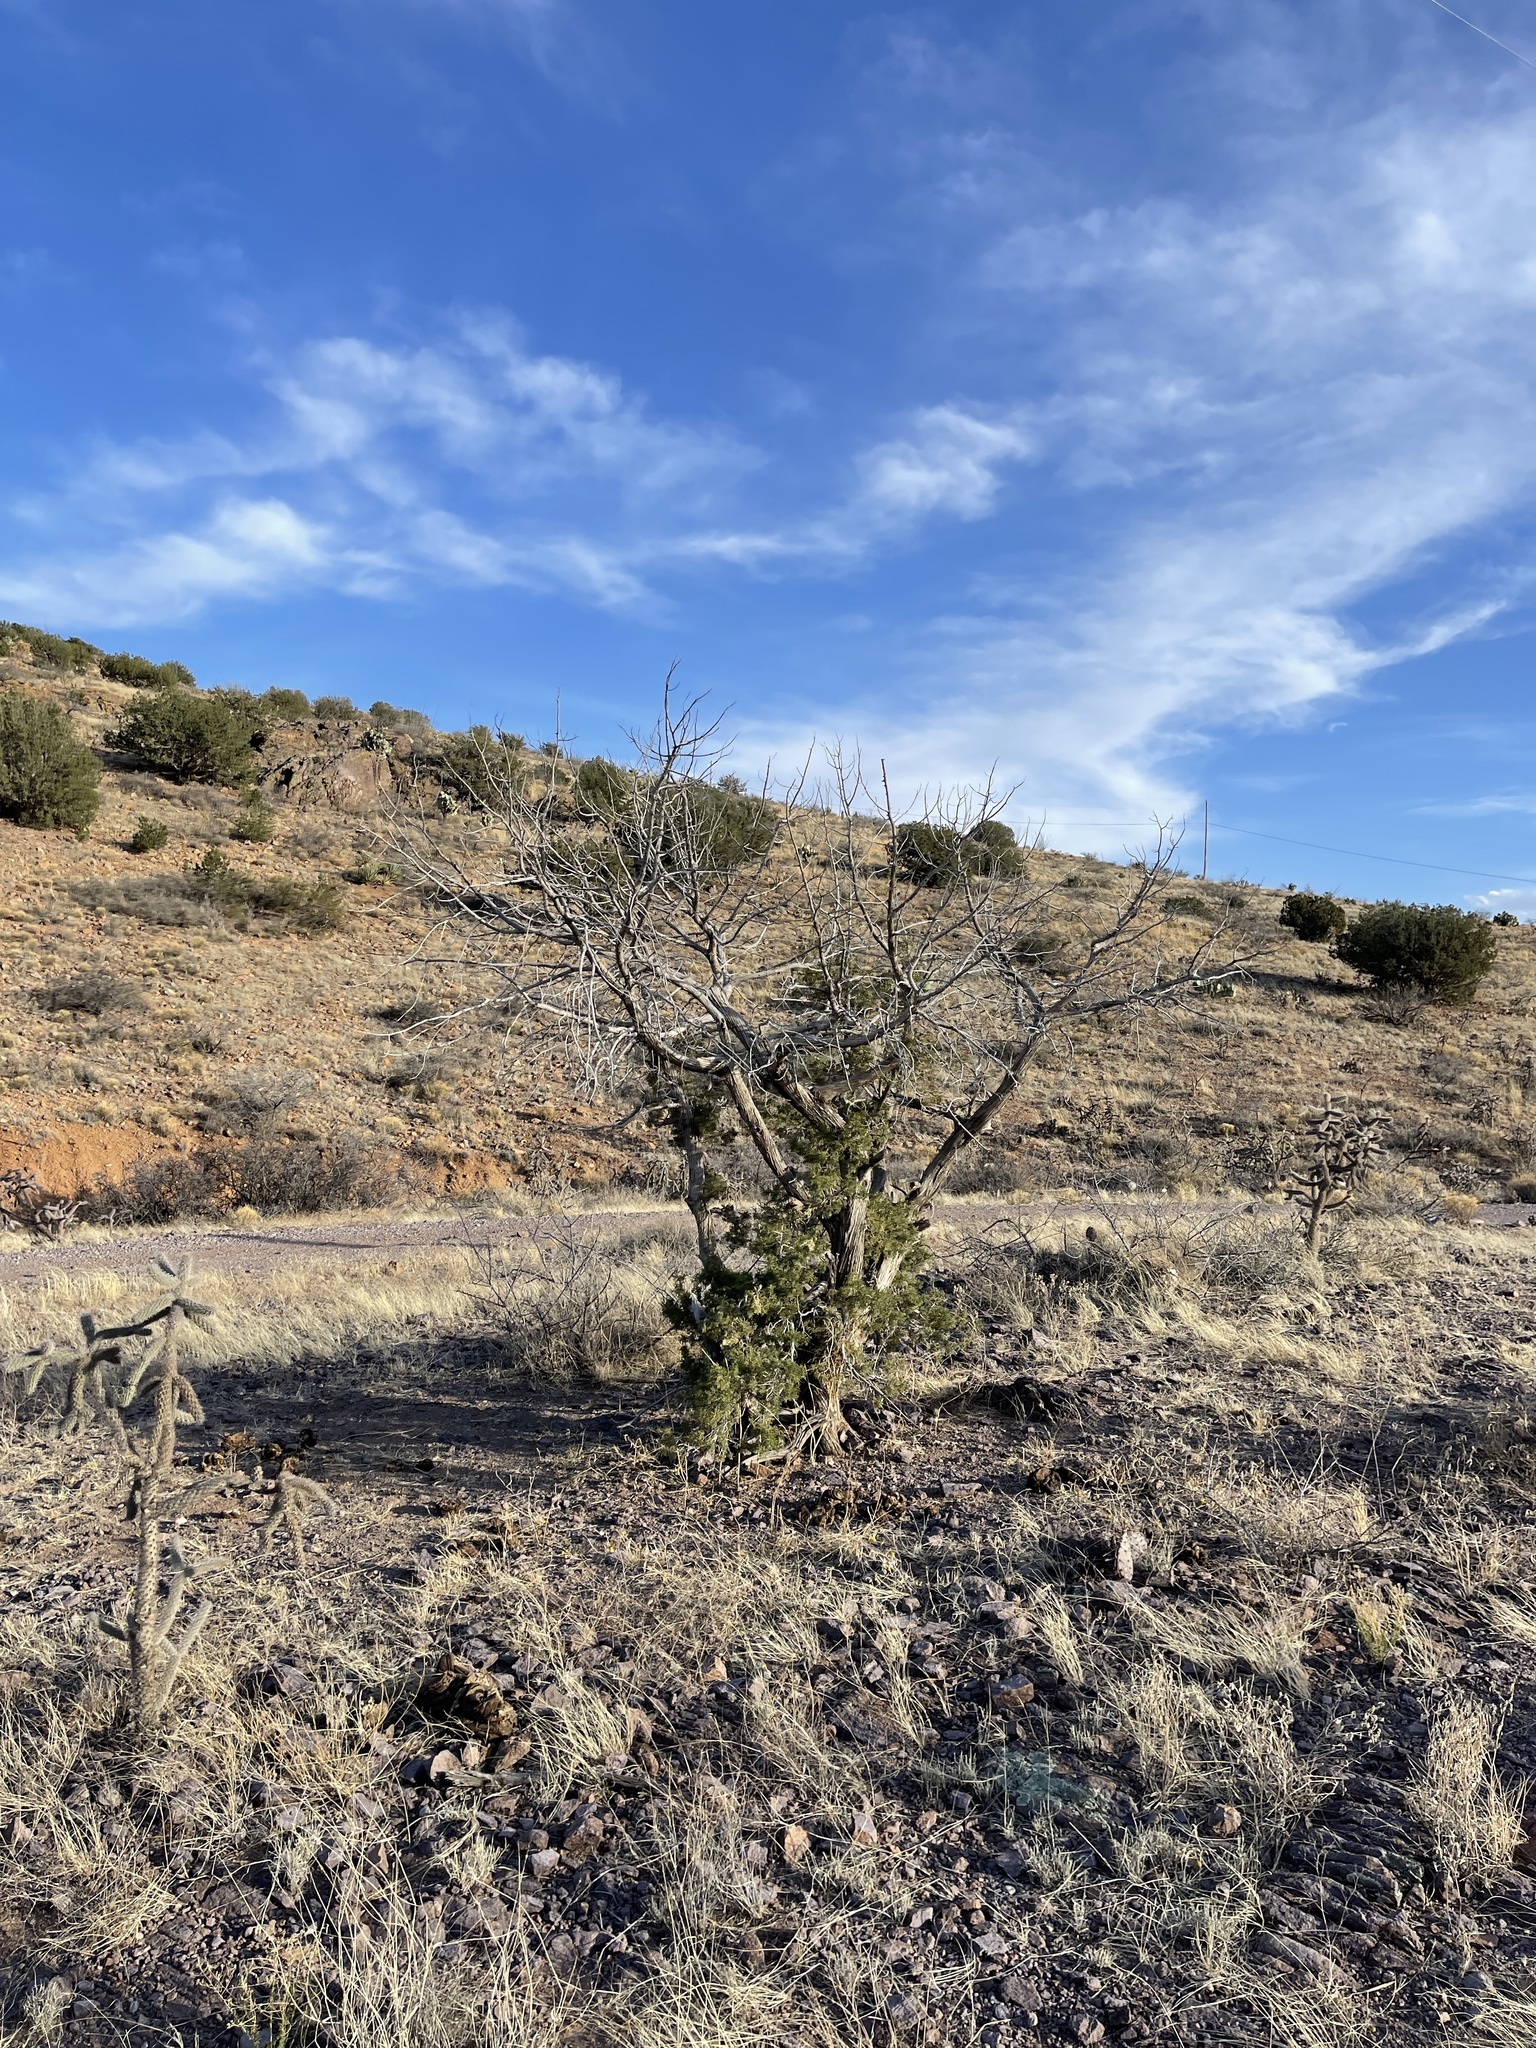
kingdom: Plantae
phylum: Tracheophyta
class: Pinopsida
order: Pinales
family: Cupressaceae
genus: Juniperus
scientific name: Juniperus monosperma
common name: One-seed juniper
